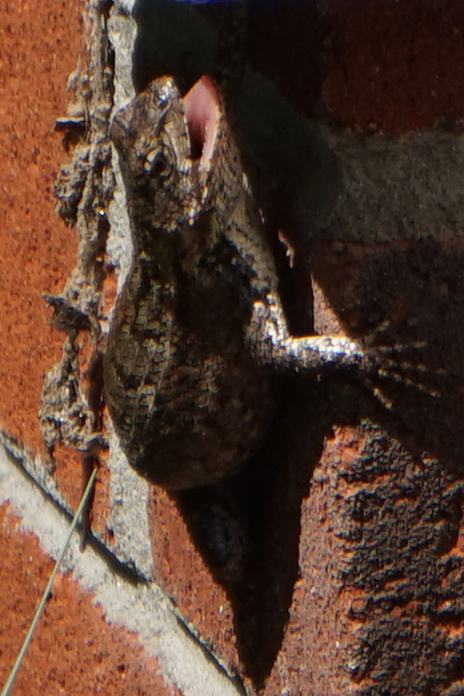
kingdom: Animalia
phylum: Chordata
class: Squamata
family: Phrynosomatidae
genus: Sceloporus
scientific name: Sceloporus undulatus
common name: Eastern fence lizard
